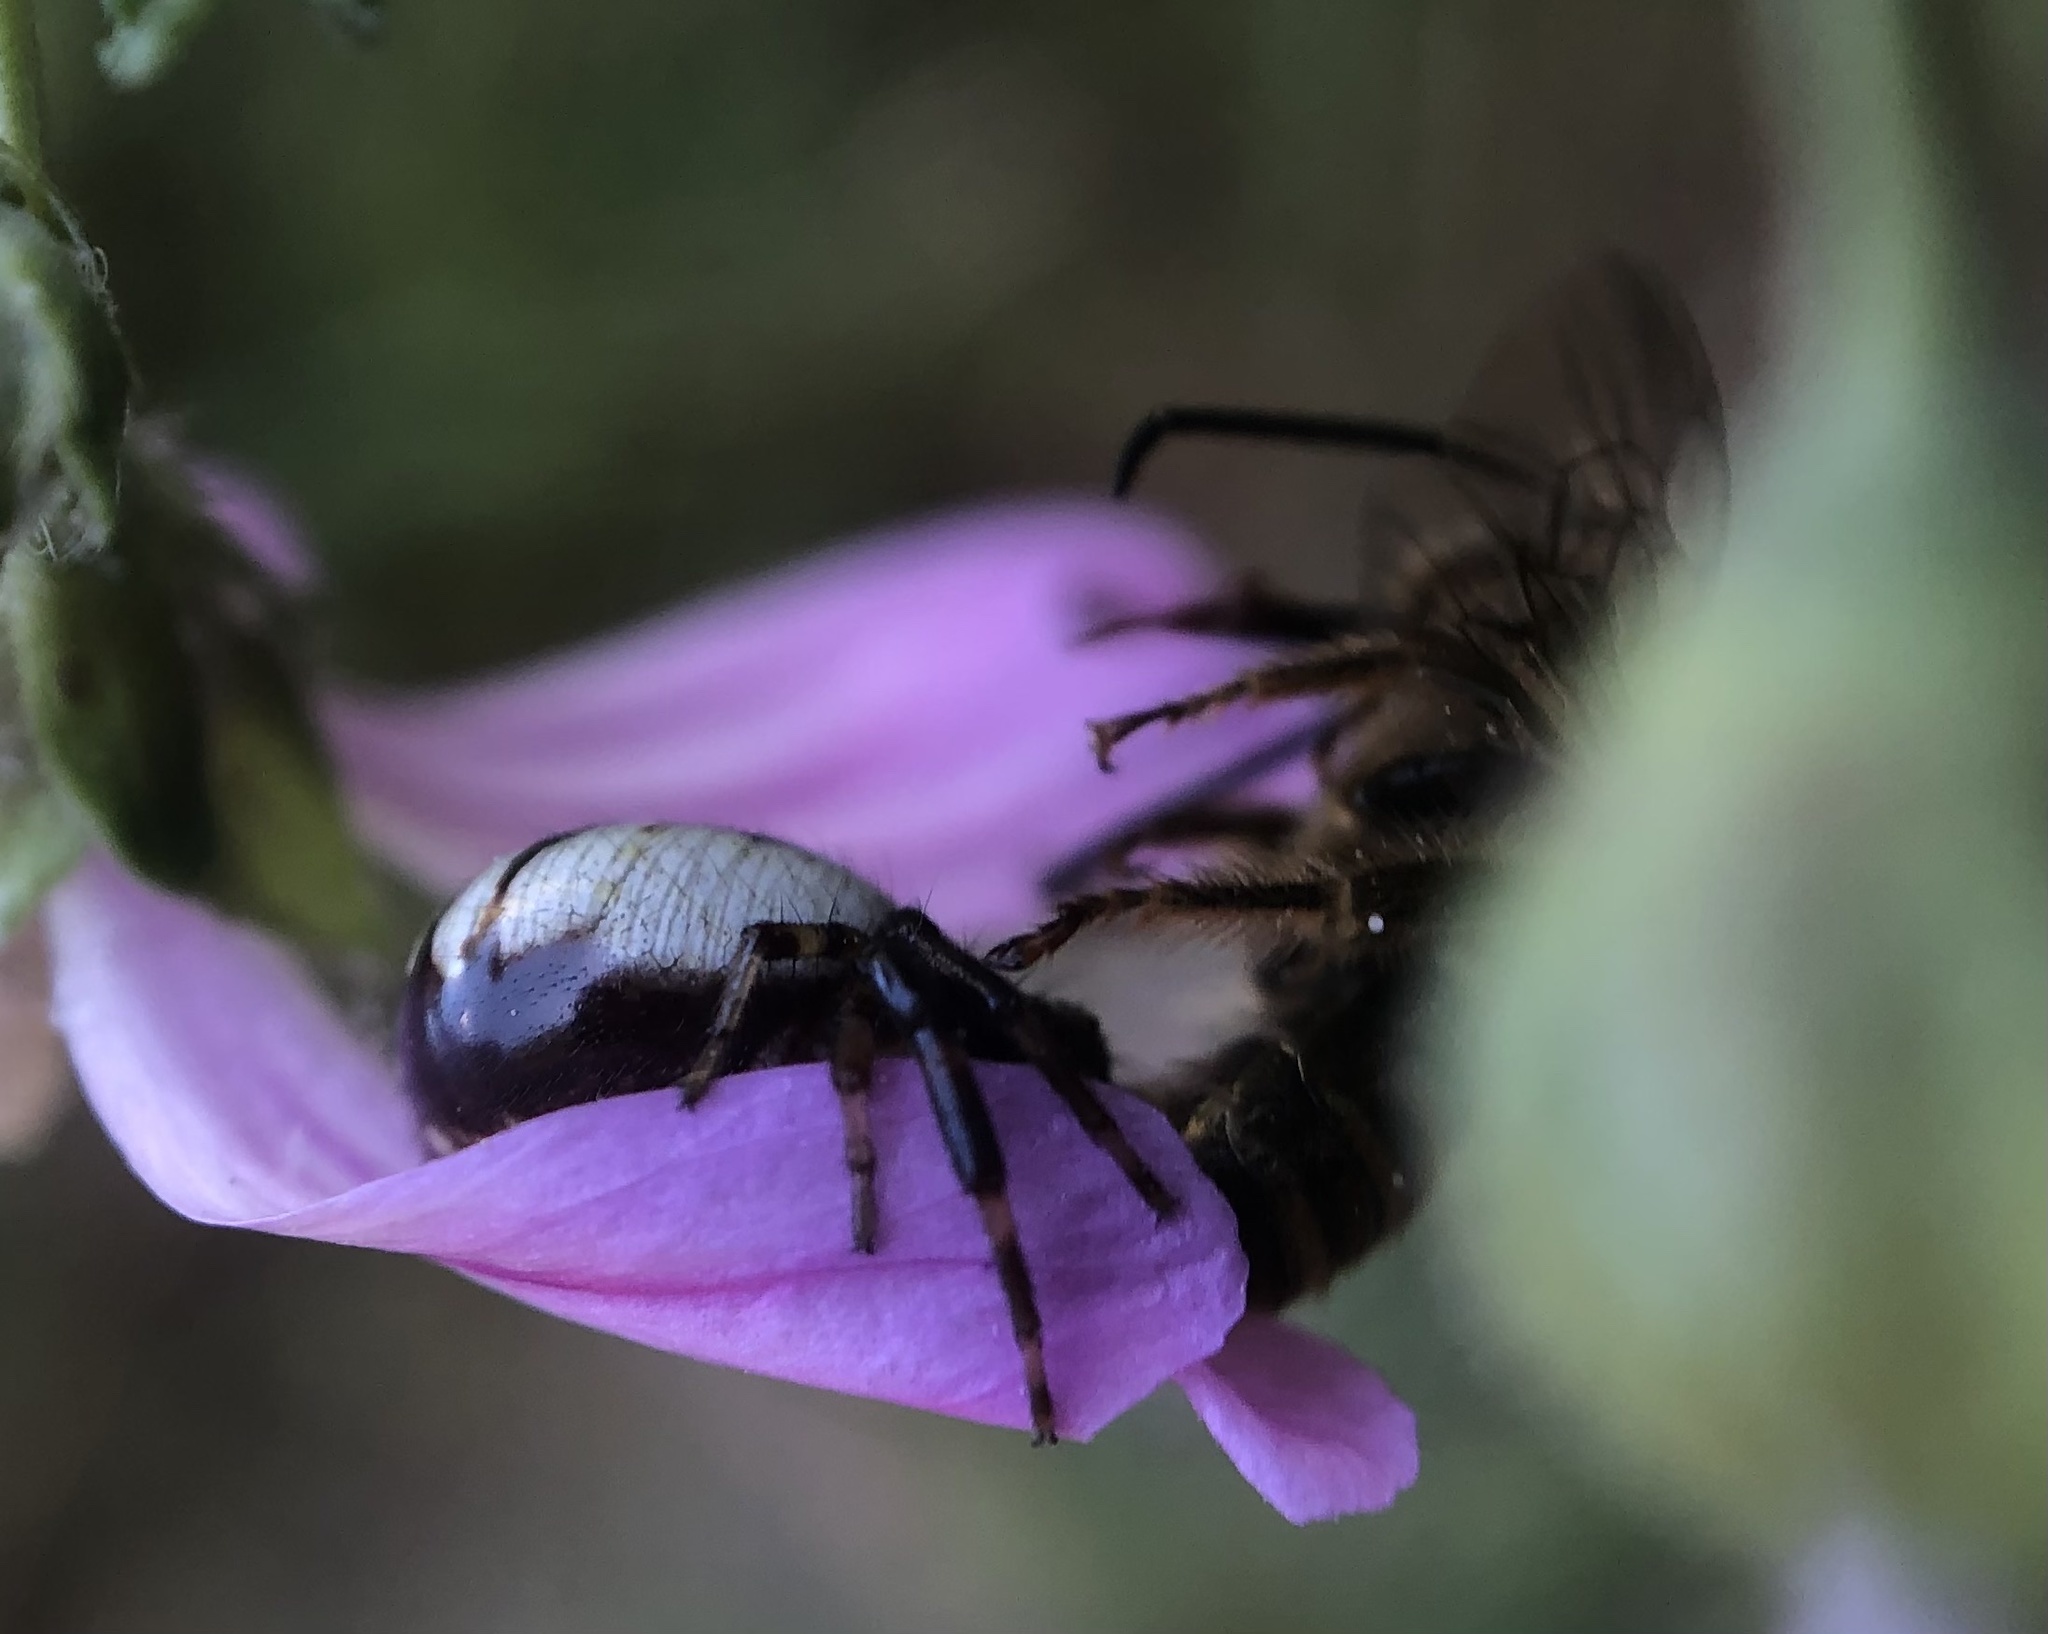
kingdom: Animalia
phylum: Arthropoda
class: Arachnida
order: Araneae
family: Thomisidae
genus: Synema
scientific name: Synema globosum
